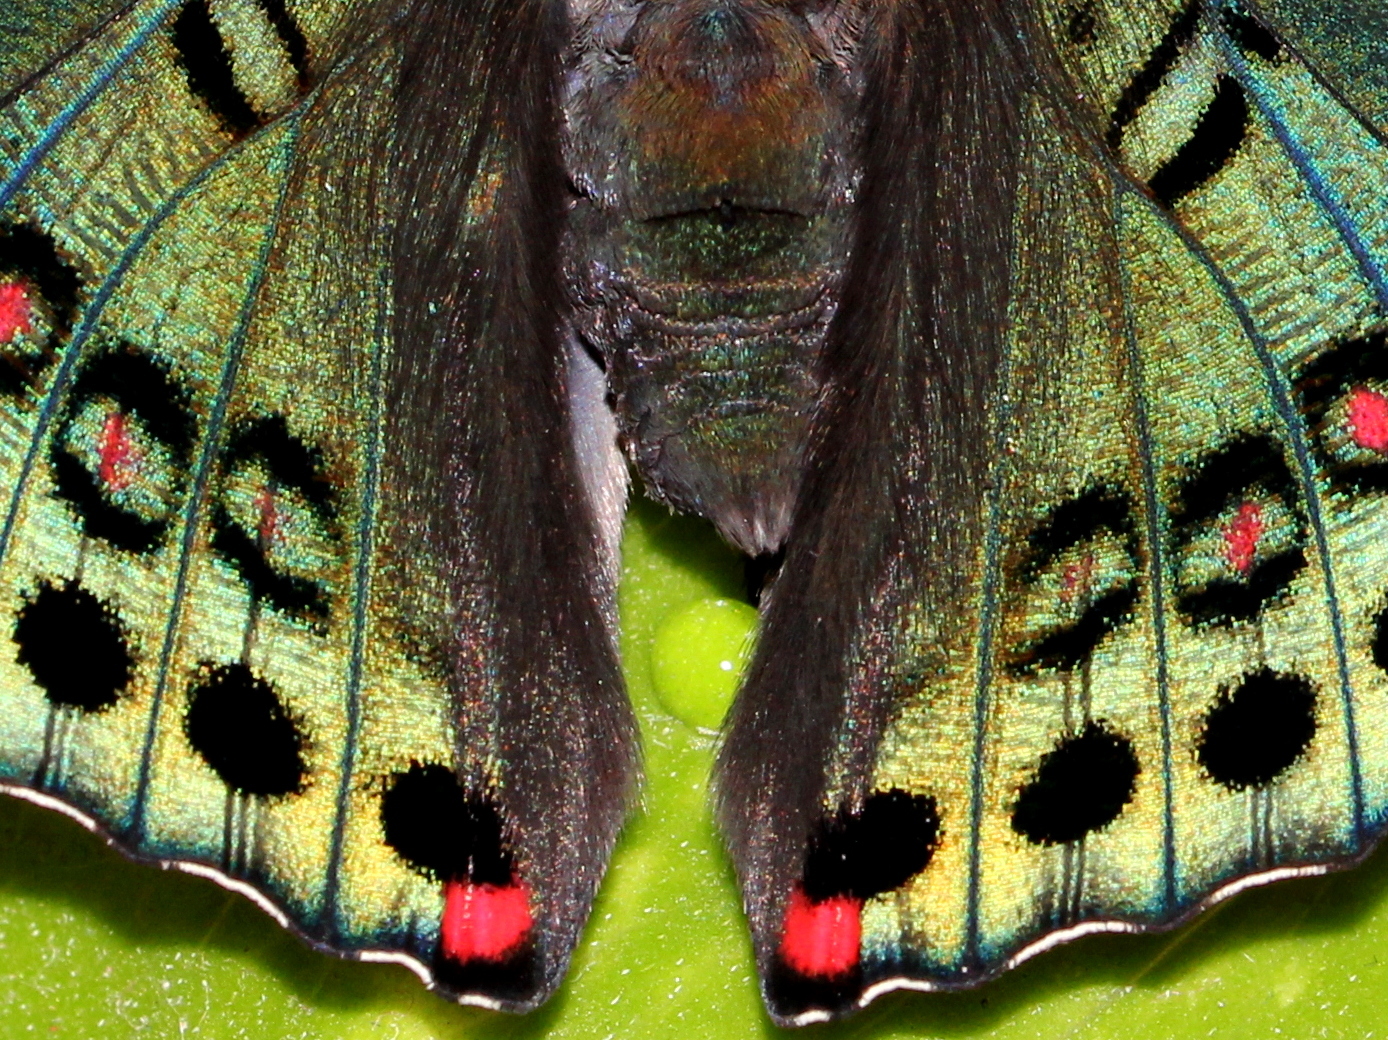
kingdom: Animalia
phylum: Arthropoda
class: Insecta
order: Lepidoptera
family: Nymphalidae
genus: Euthalia
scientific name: Euthalia lubentina
